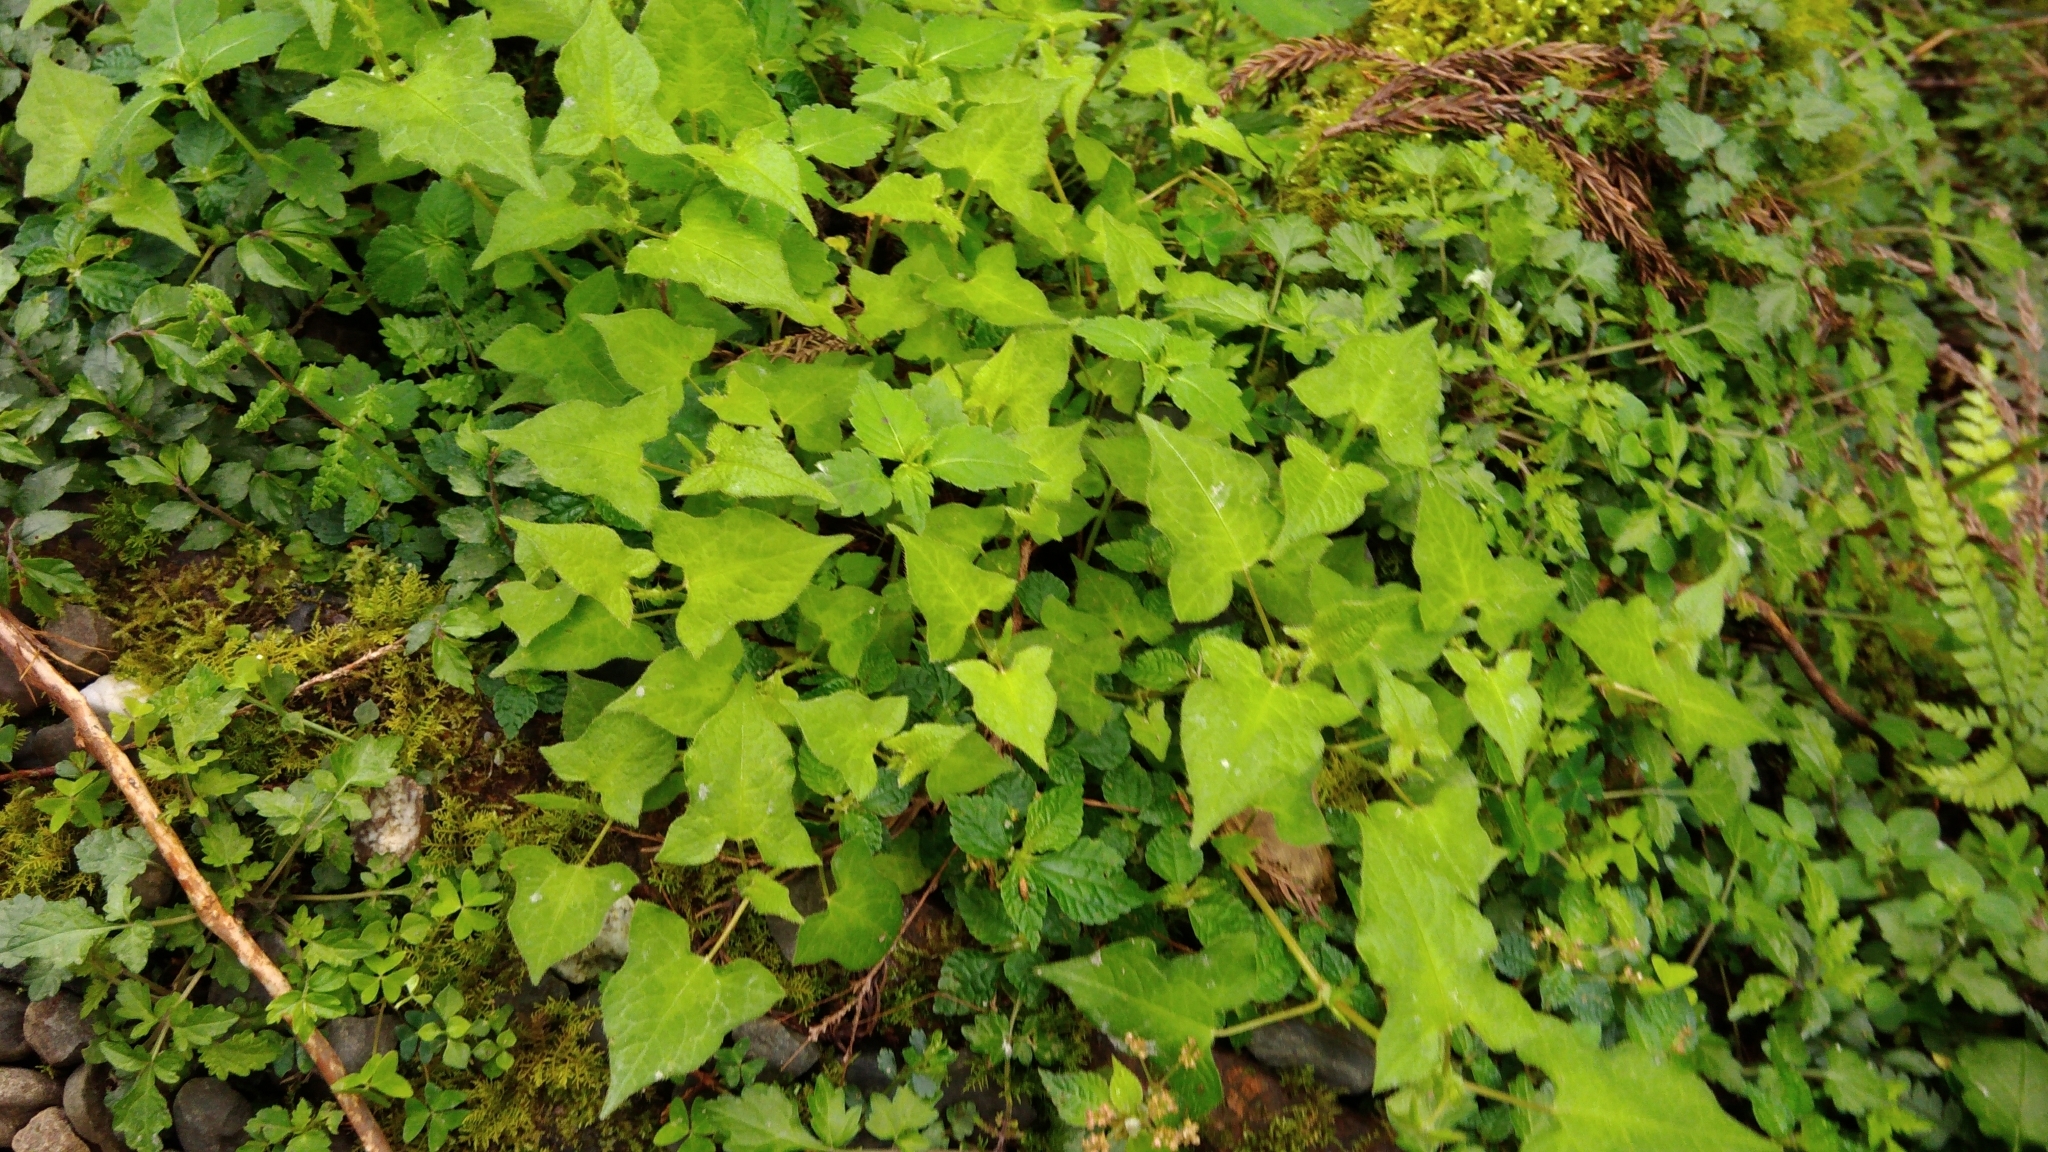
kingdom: Plantae
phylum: Tracheophyta
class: Magnoliopsida
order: Caryophyllales
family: Polygonaceae
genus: Persicaria
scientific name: Persicaria biconvexa
